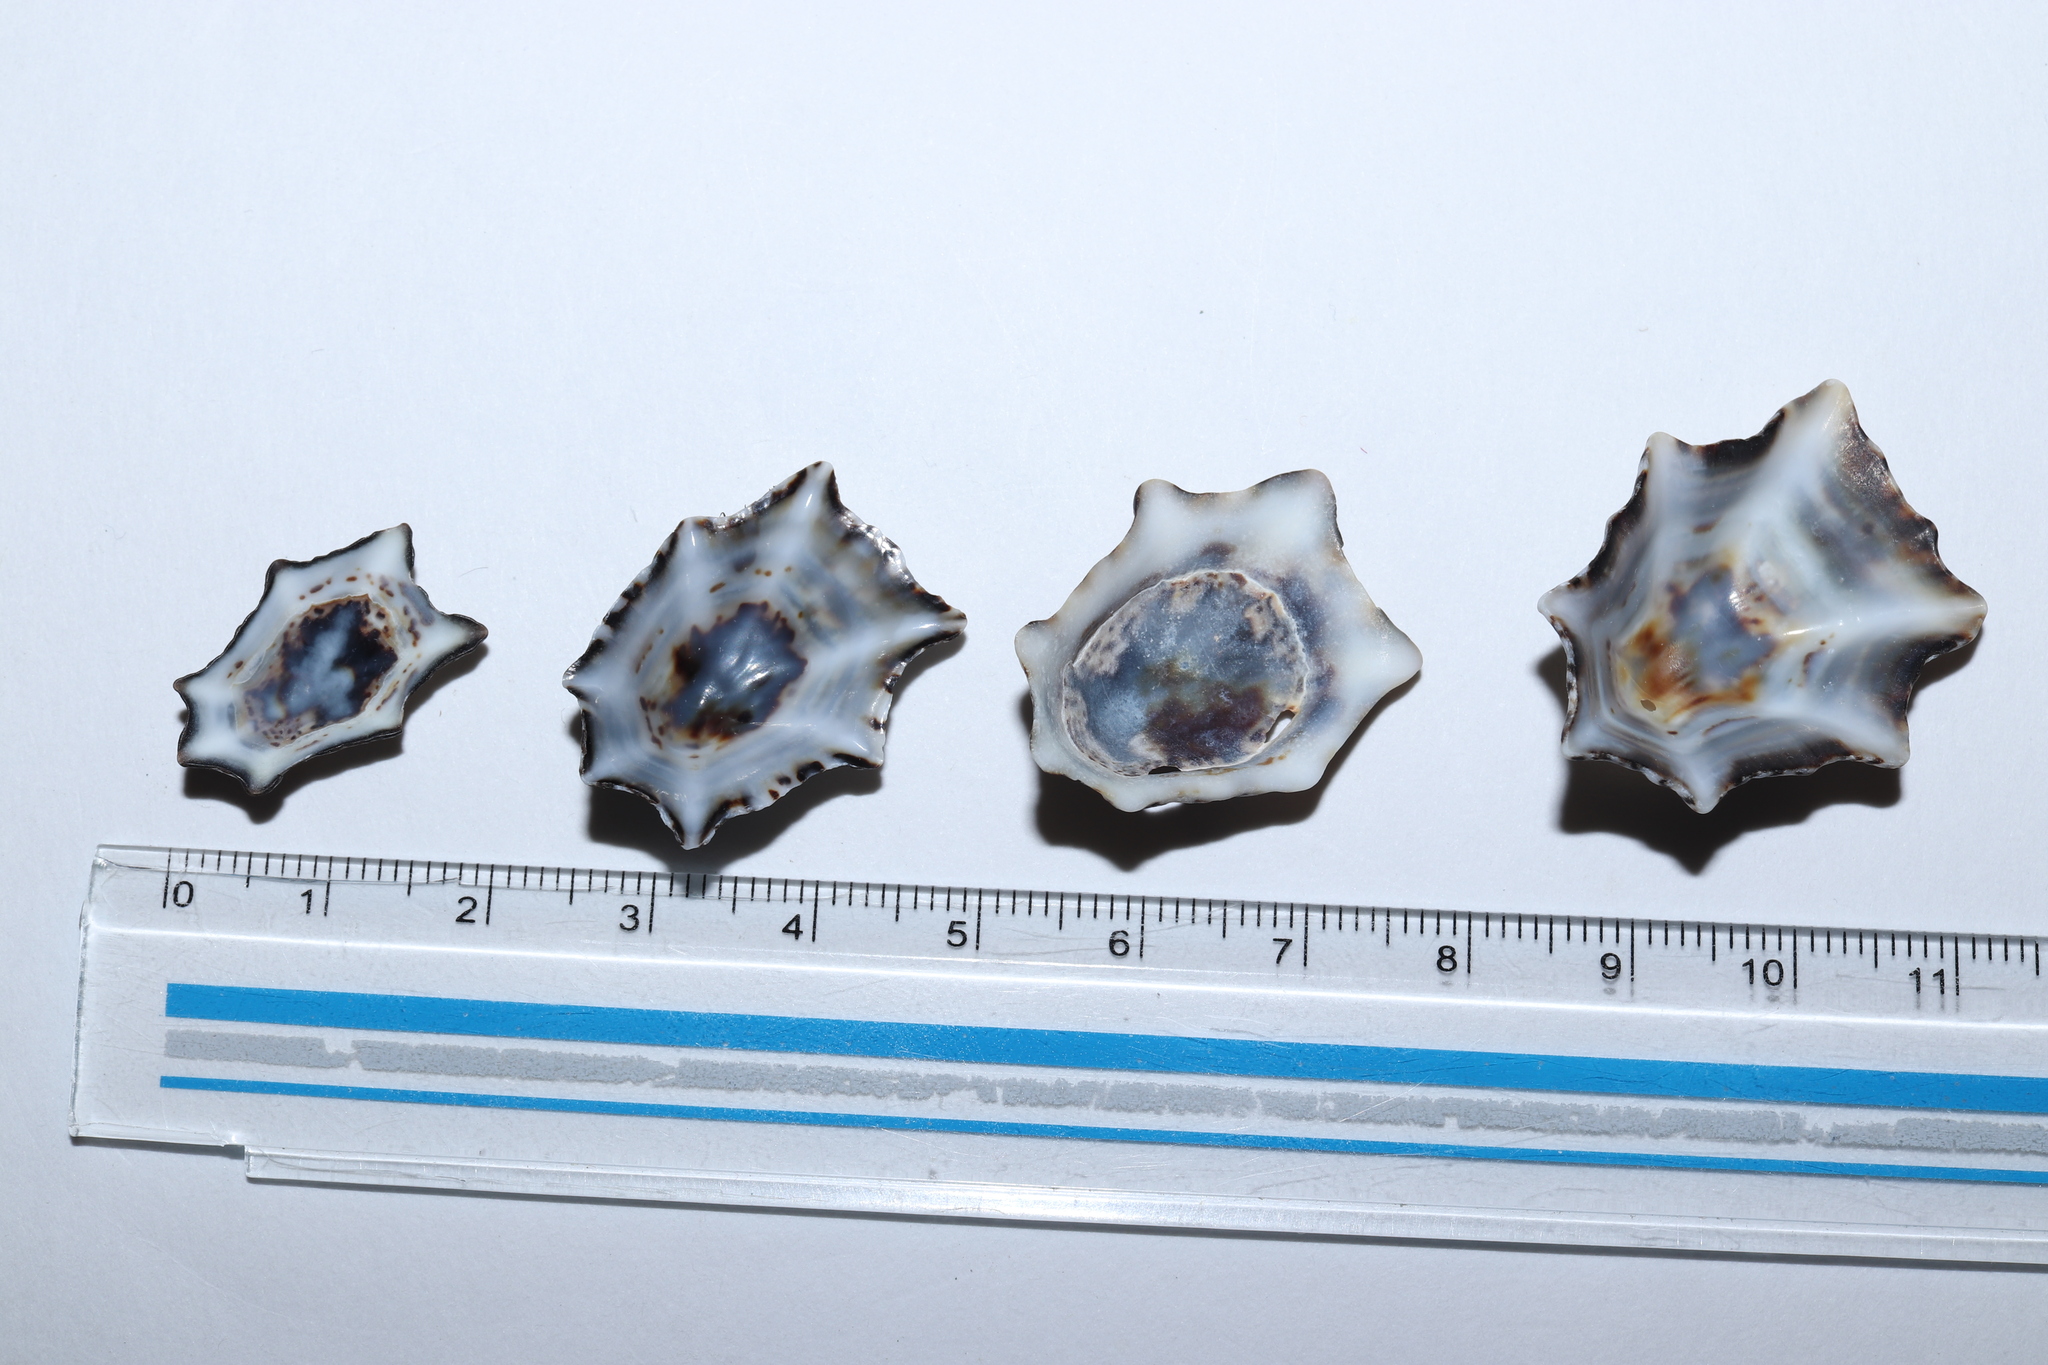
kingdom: Animalia
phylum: Mollusca
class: Gastropoda
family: Lottiidae
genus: Patelloida
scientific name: Patelloida saccharina
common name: Pacific sugar limpet
